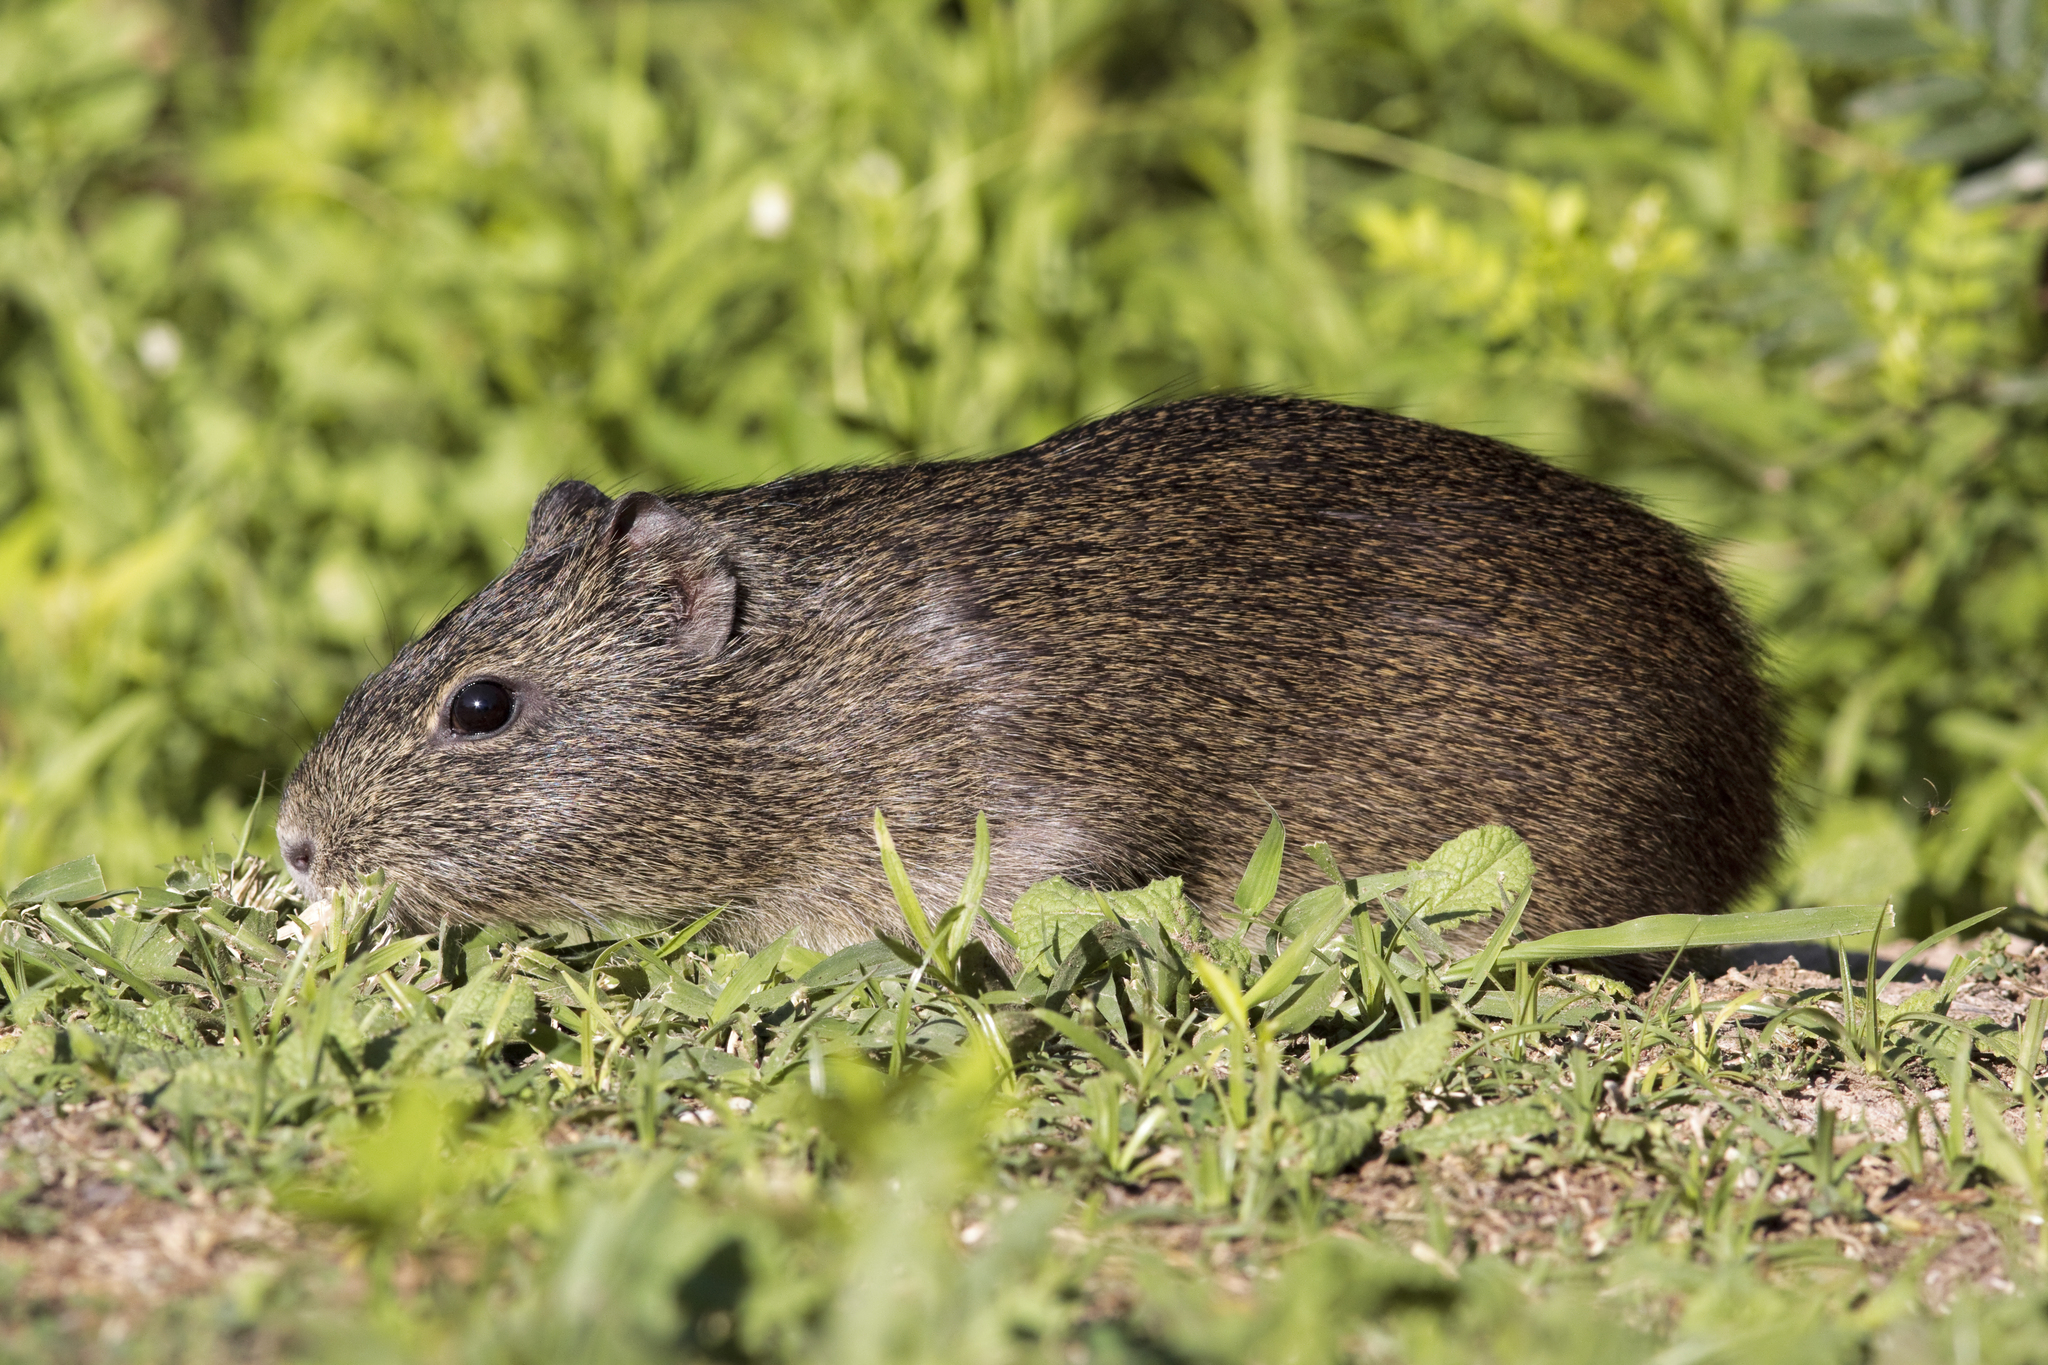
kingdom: Animalia
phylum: Chordata
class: Mammalia
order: Rodentia
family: Caviidae
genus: Cavia
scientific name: Cavia aperea
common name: Brazilian guinea pig
